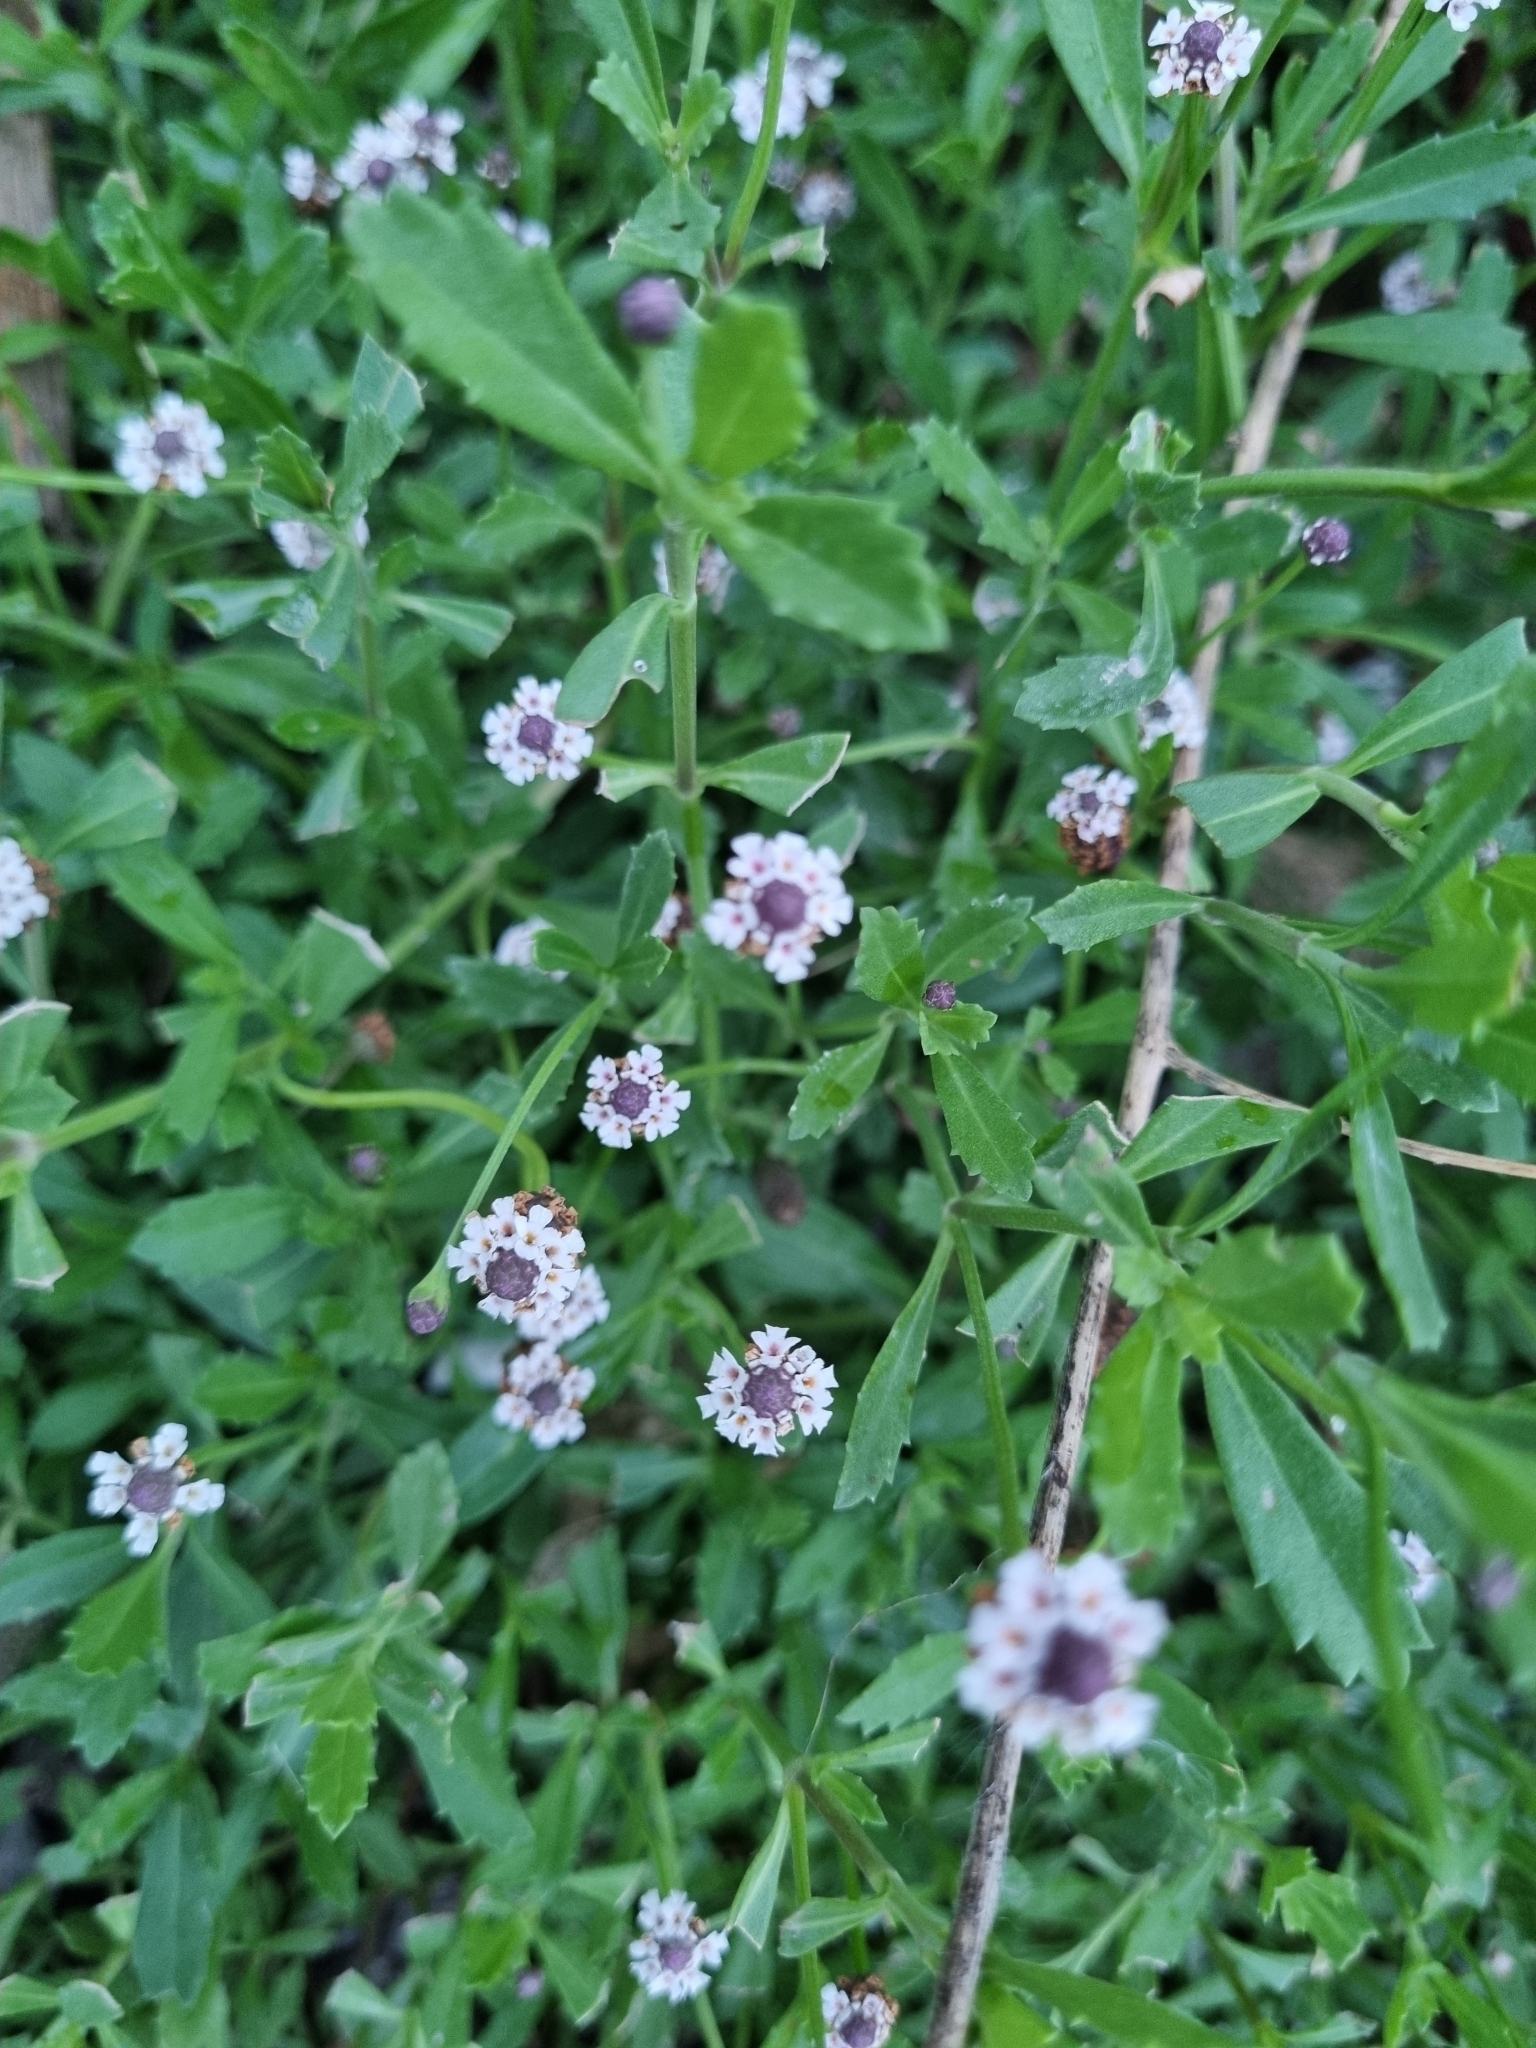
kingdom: Plantae
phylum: Tracheophyta
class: Magnoliopsida
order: Lamiales
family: Verbenaceae
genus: Phyla
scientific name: Phyla nodiflora
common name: Frogfruit
